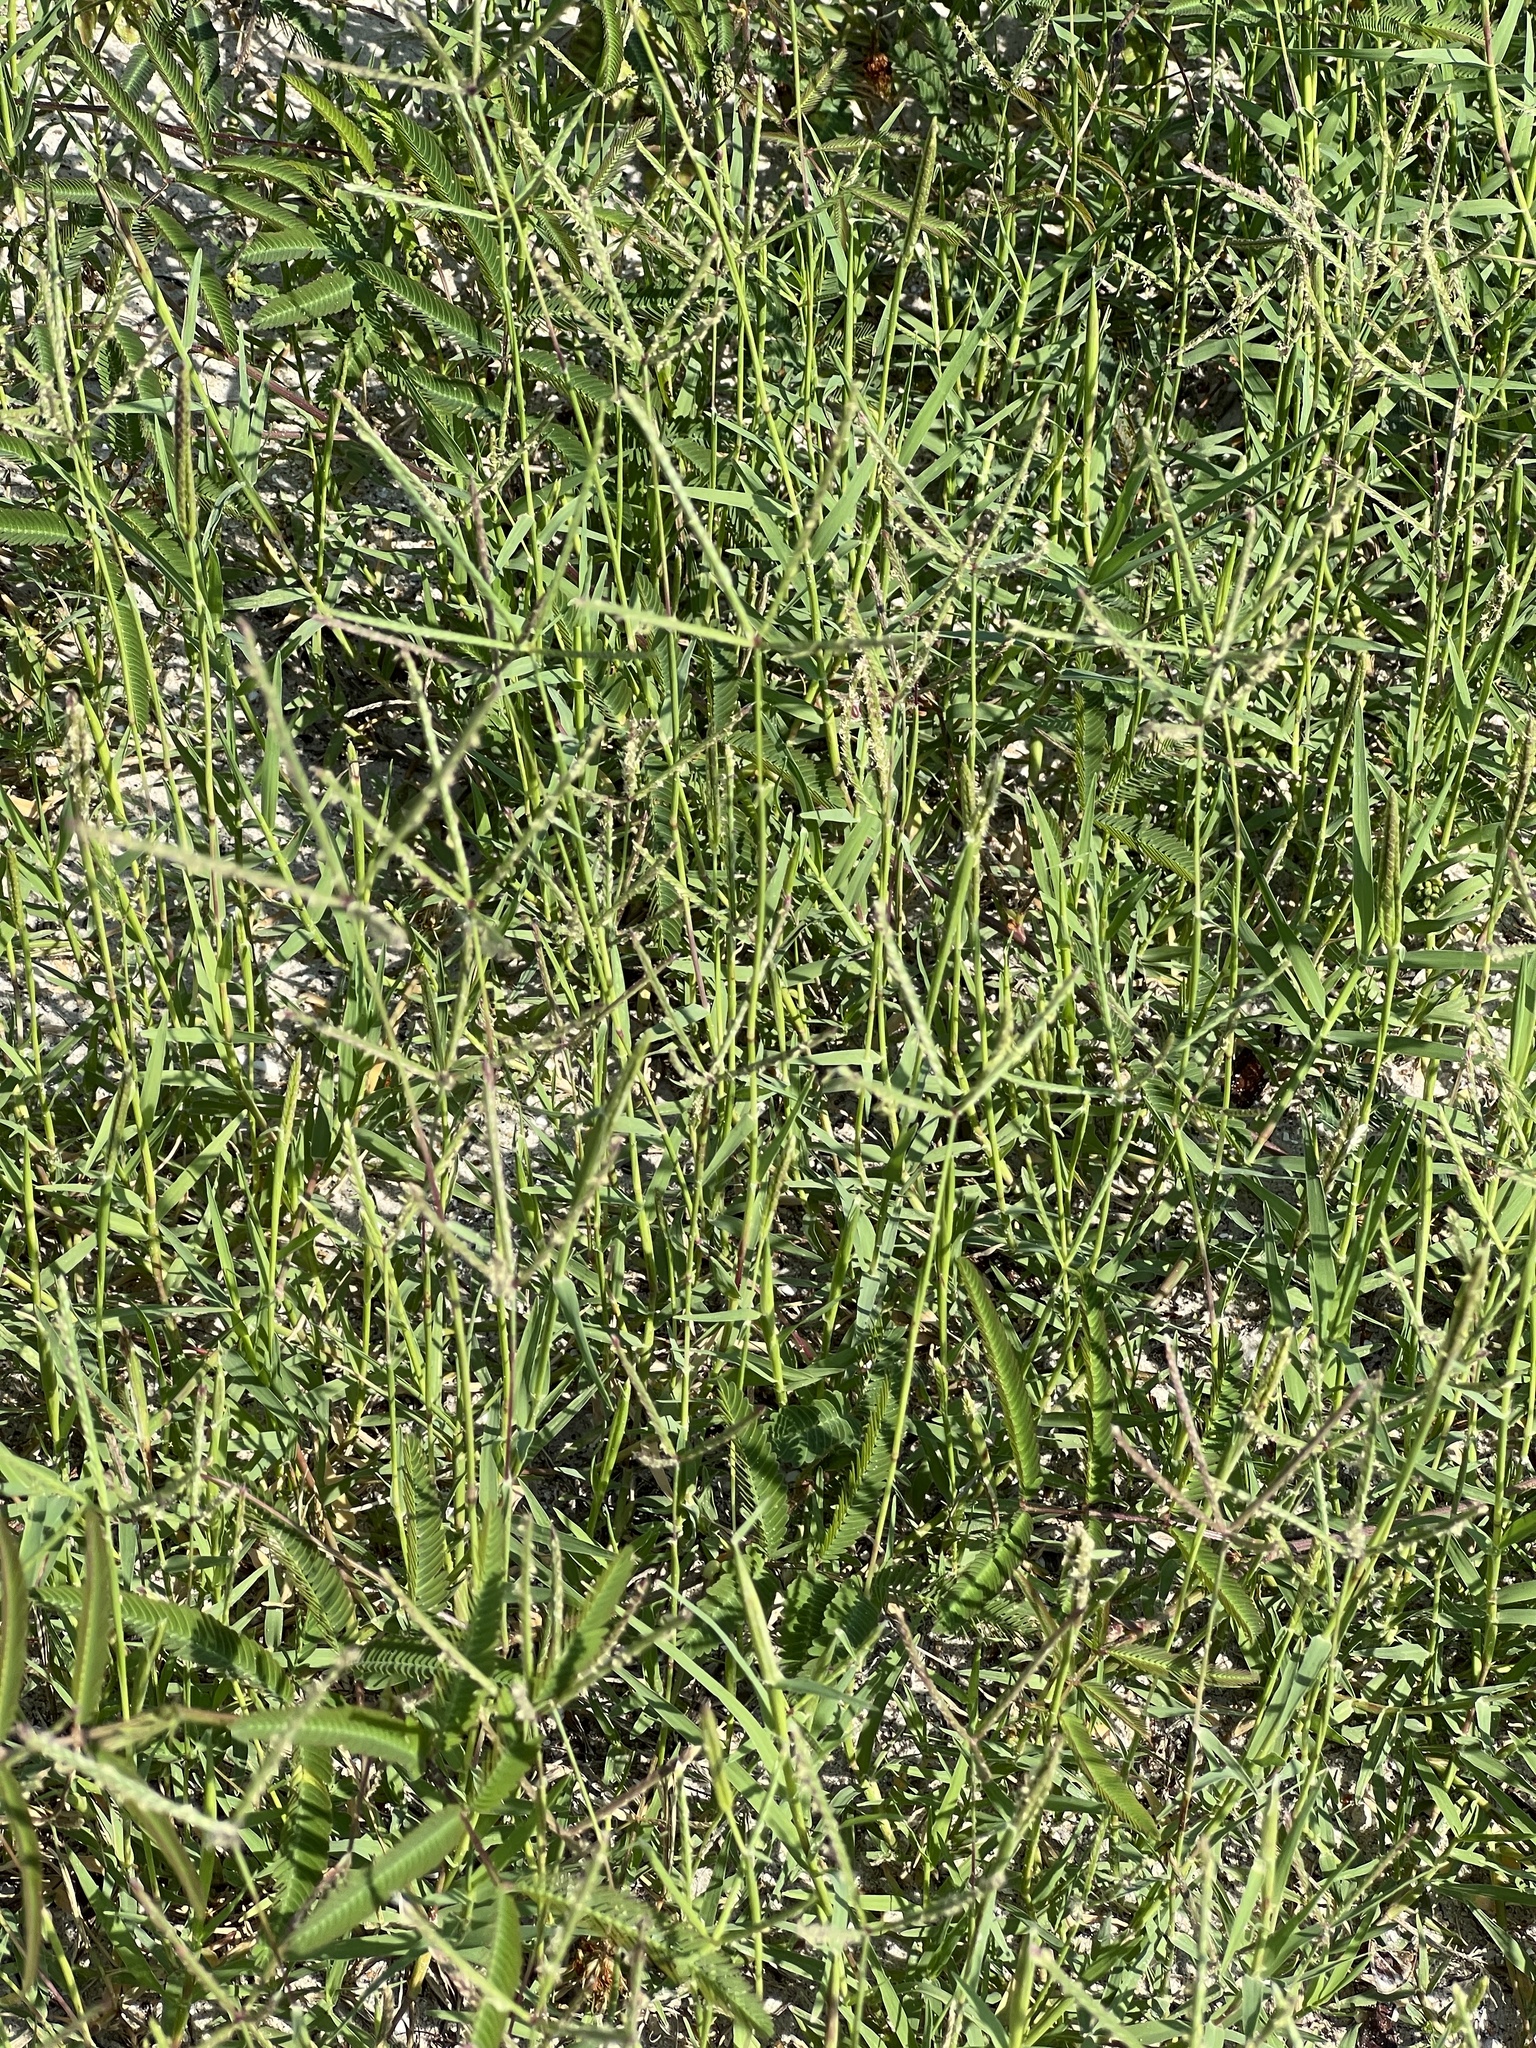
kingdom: Plantae
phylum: Tracheophyta
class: Liliopsida
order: Poales
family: Poaceae
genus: Cynodon
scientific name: Cynodon dactylon
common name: Bermuda grass
